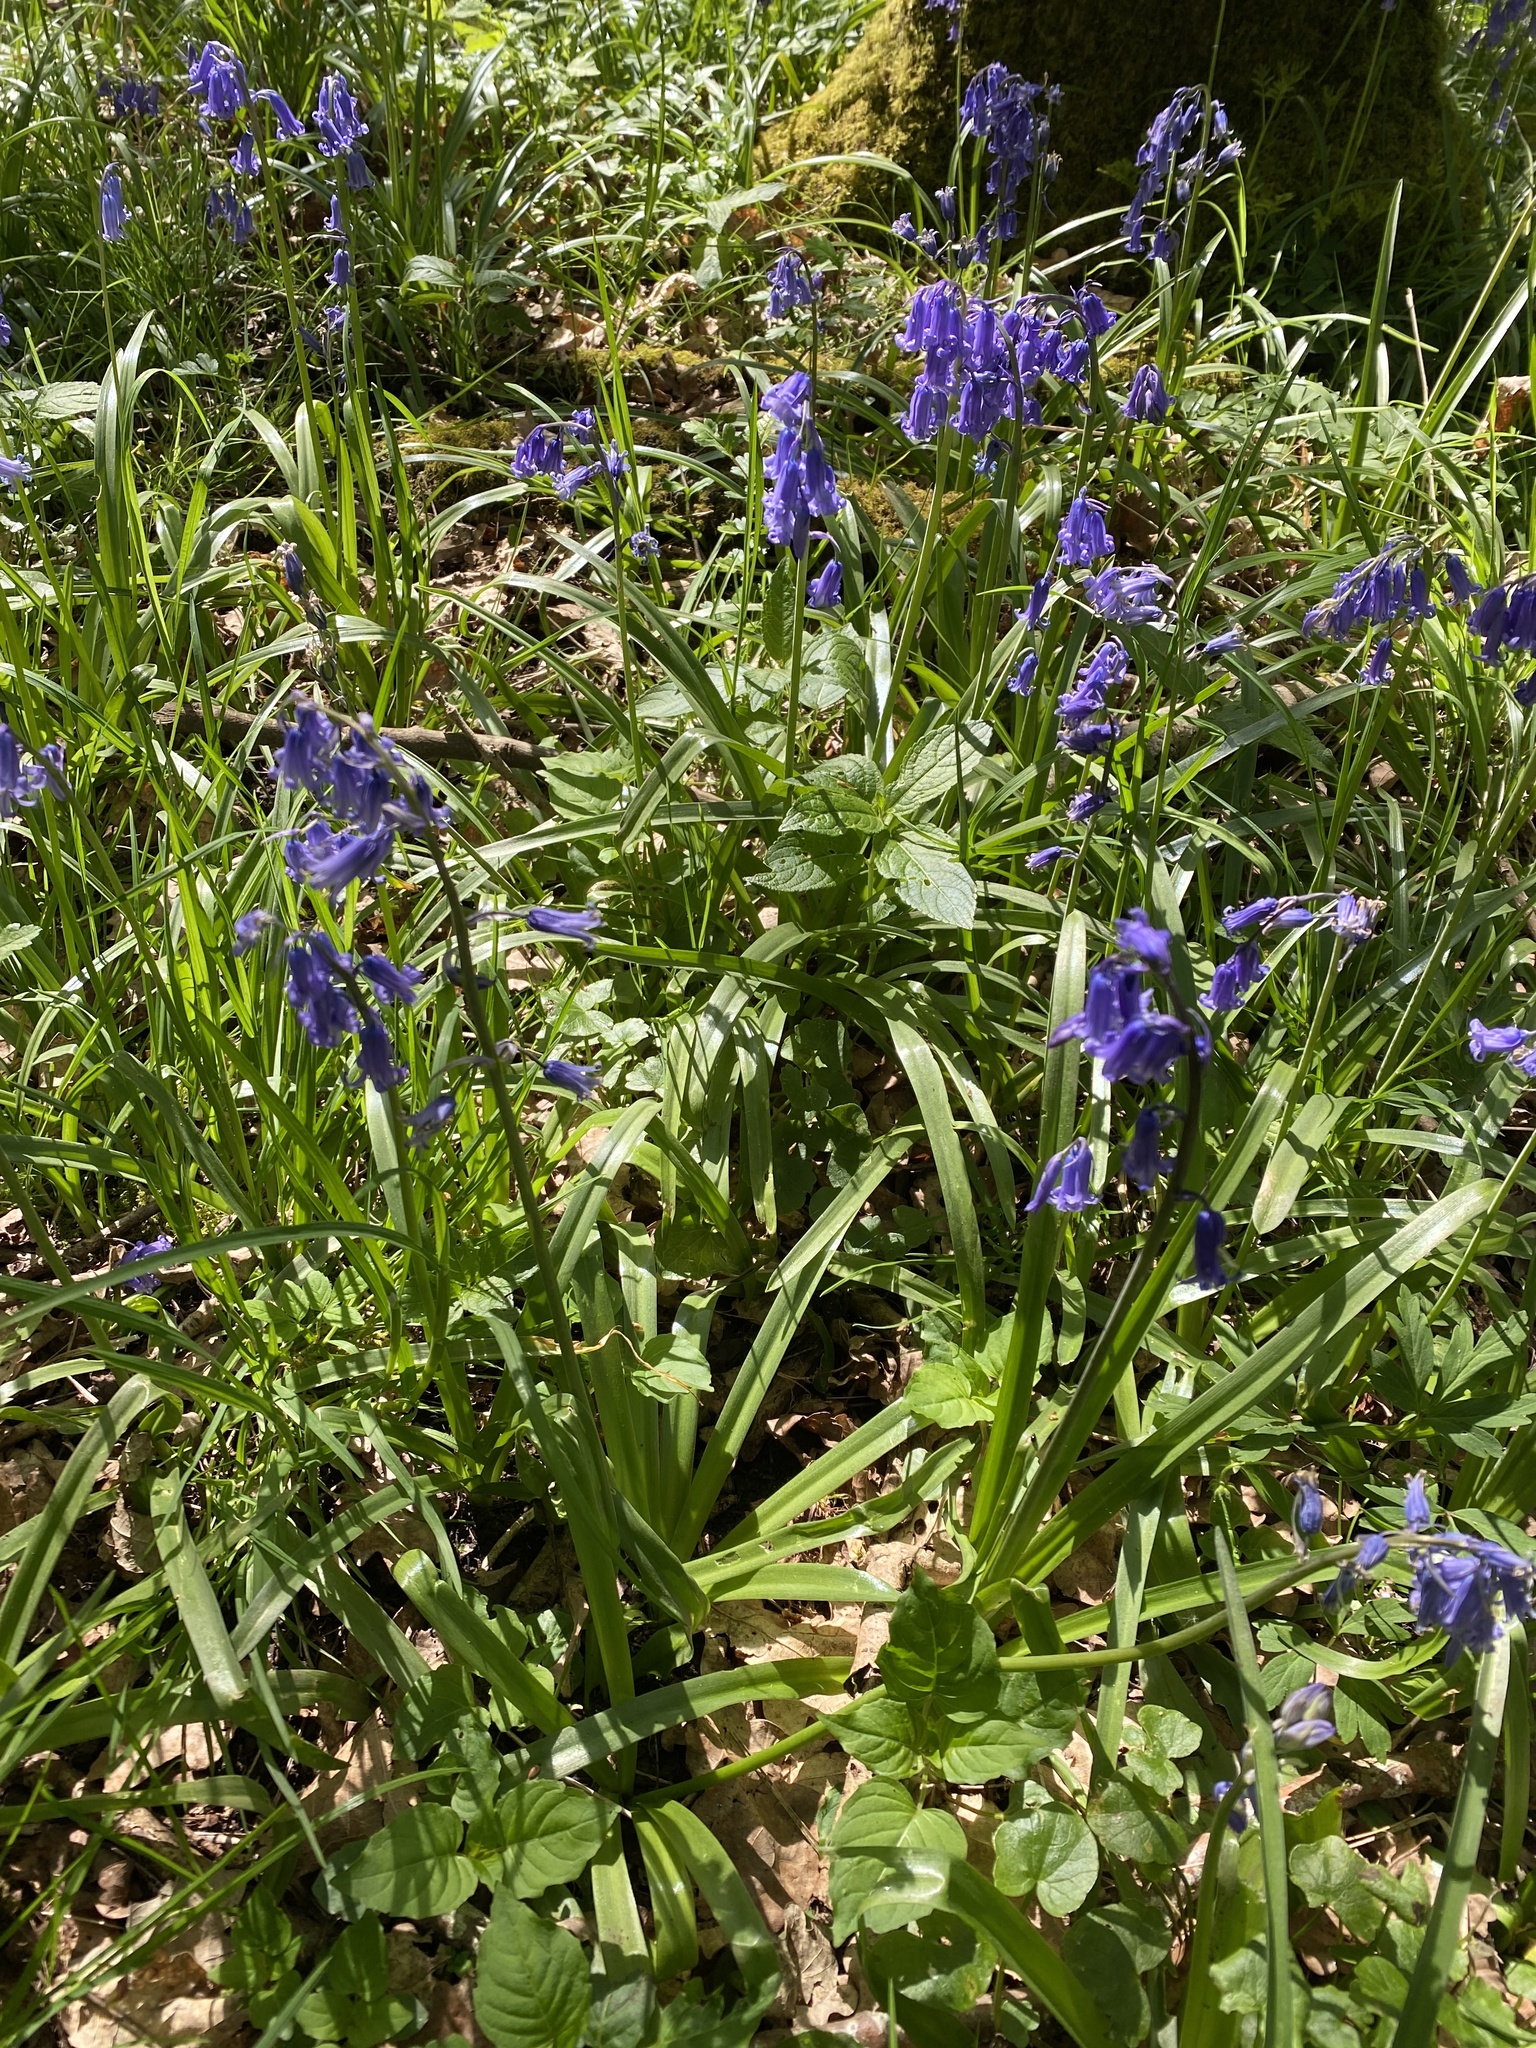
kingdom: Plantae
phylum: Tracheophyta
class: Liliopsida
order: Asparagales
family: Asparagaceae
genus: Hyacinthoides
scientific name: Hyacinthoides non-scripta
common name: Bluebell
